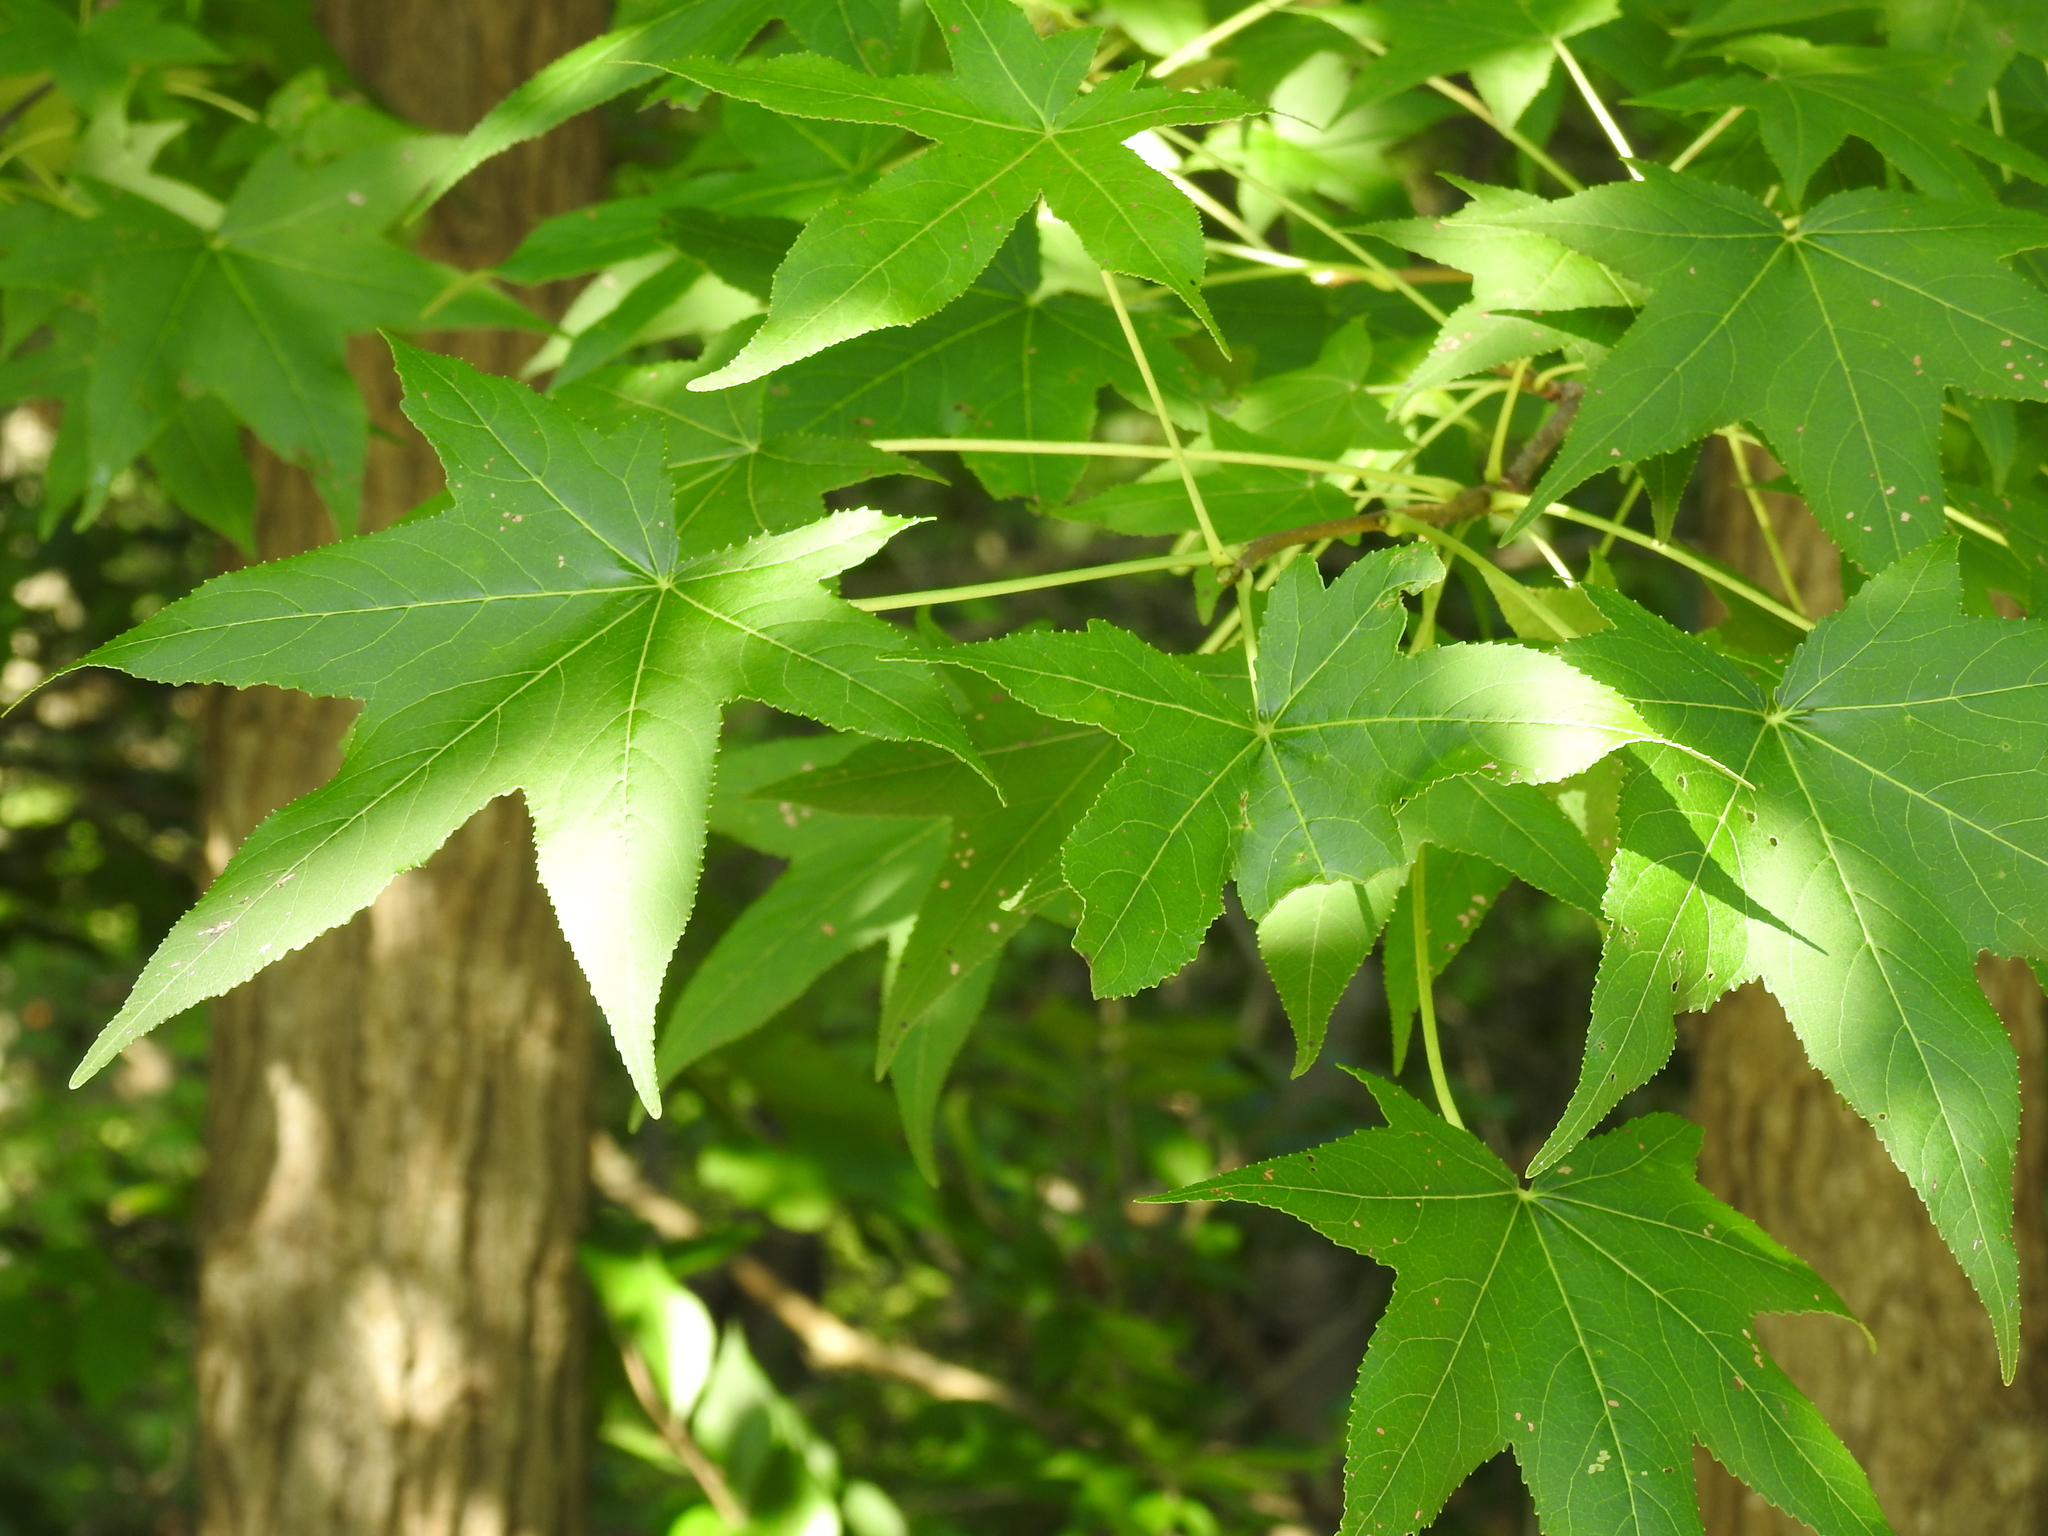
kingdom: Plantae
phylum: Tracheophyta
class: Magnoliopsida
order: Saxifragales
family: Altingiaceae
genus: Liquidambar
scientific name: Liquidambar styraciflua
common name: Sweet gum
